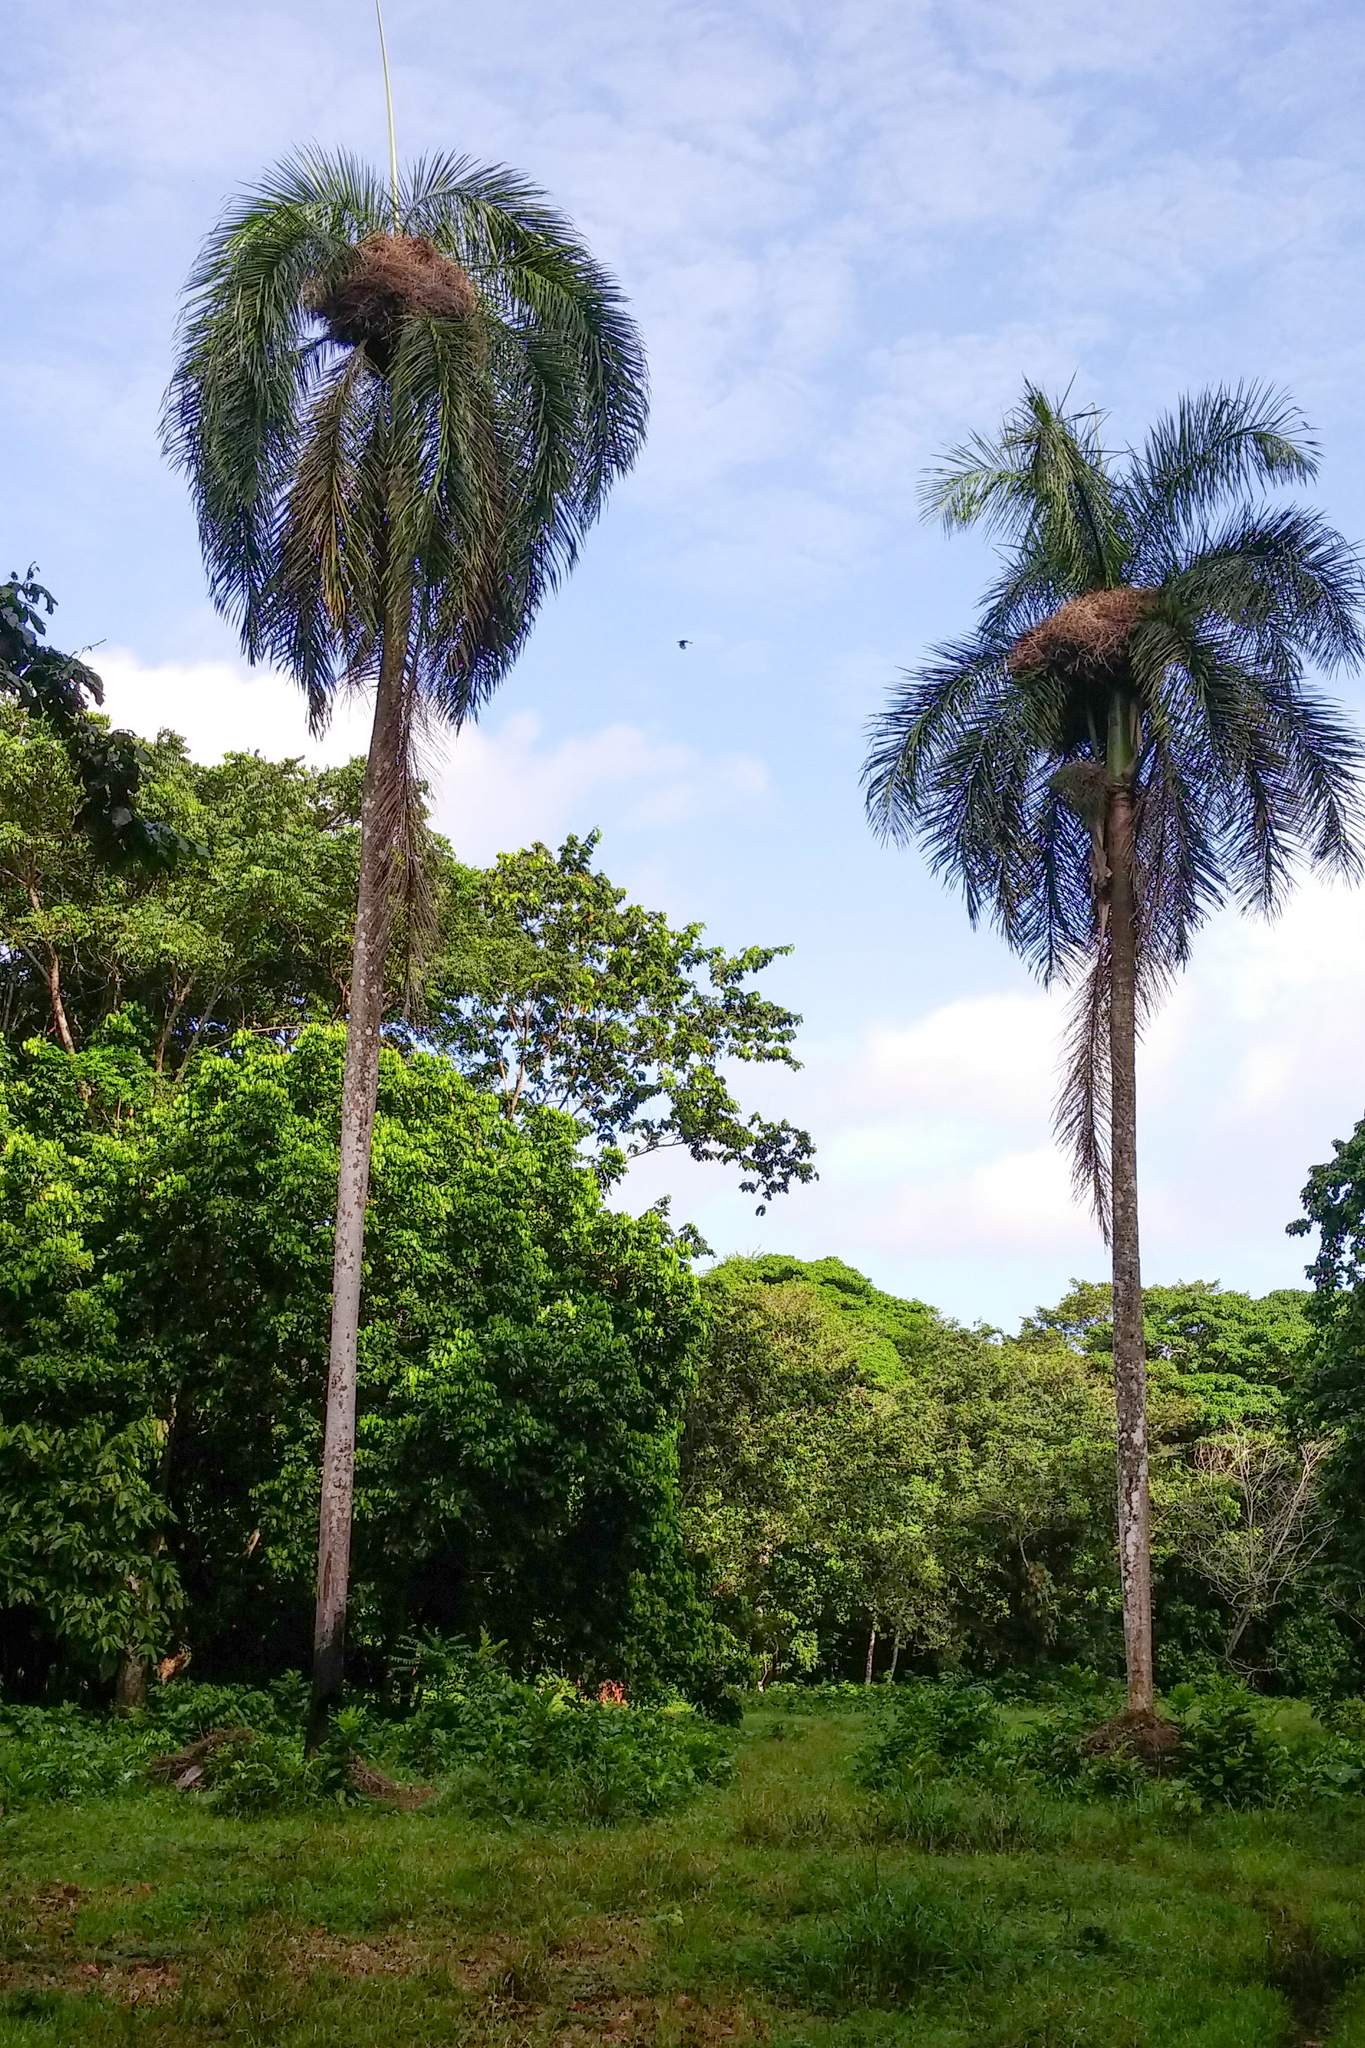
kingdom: Plantae
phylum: Tracheophyta
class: Liliopsida
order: Arecales
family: Arecaceae
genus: Roystonea
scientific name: Roystonea borinquena
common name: Puerto rican royal palm
